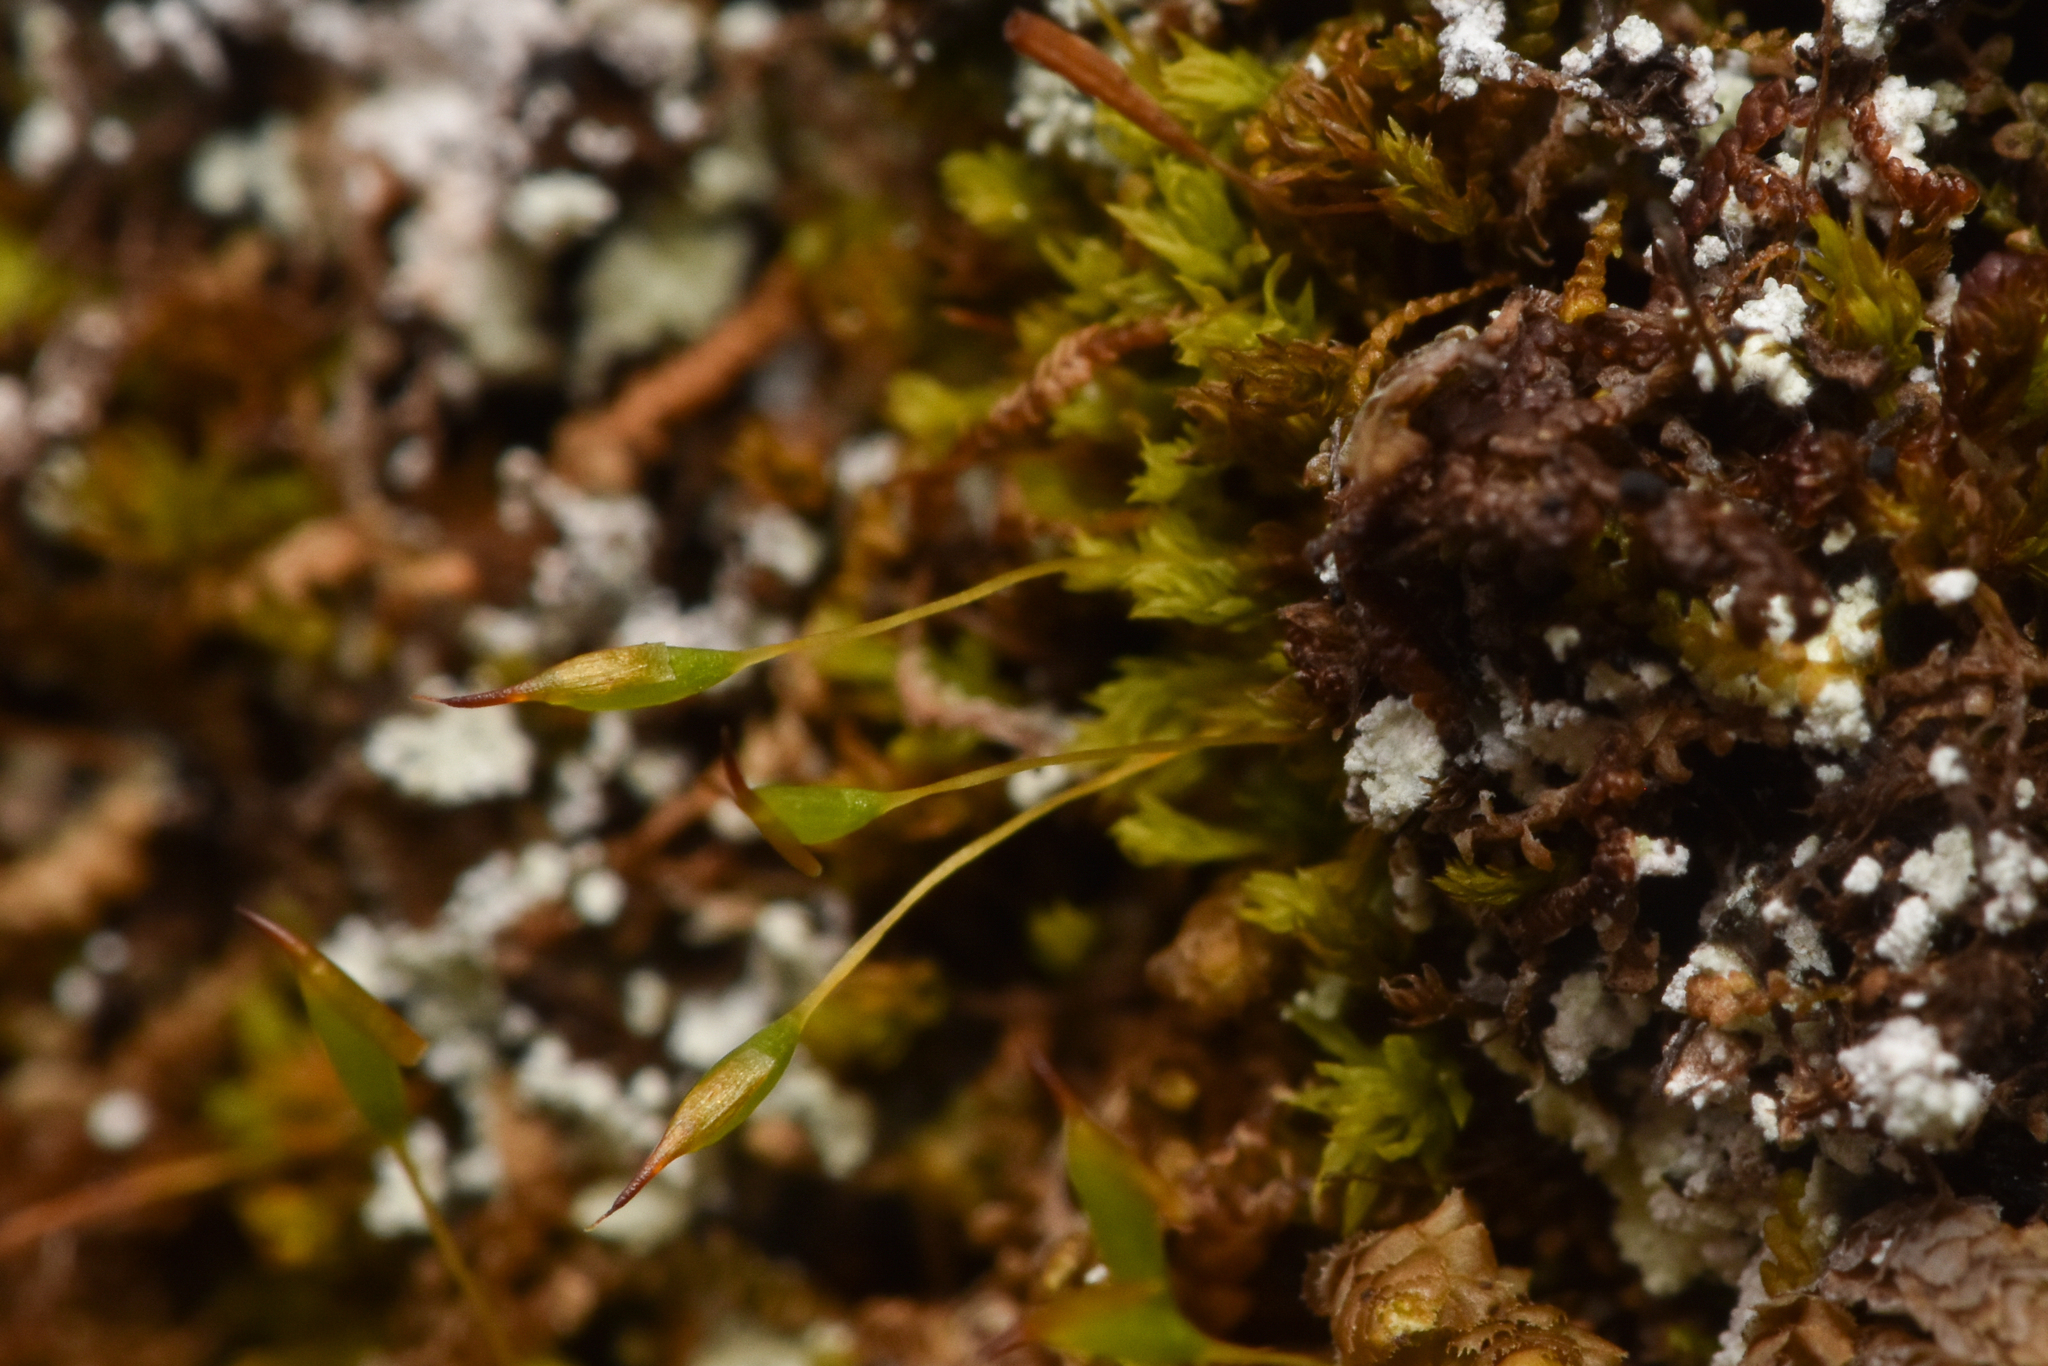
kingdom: Plantae
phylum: Bryophyta
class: Bryopsida
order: Orthotrichales
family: Orthotrichaceae
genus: Zygodon
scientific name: Zygodon reinwardtii
